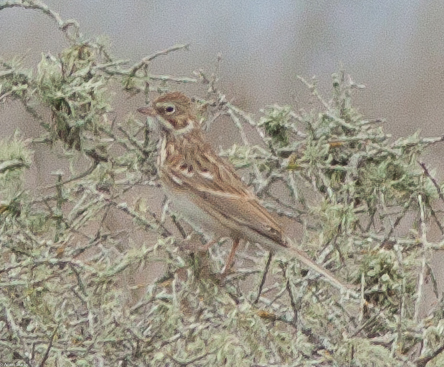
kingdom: Animalia
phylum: Chordata
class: Aves
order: Passeriformes
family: Passerellidae
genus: Pooecetes
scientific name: Pooecetes gramineus
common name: Vesper sparrow
